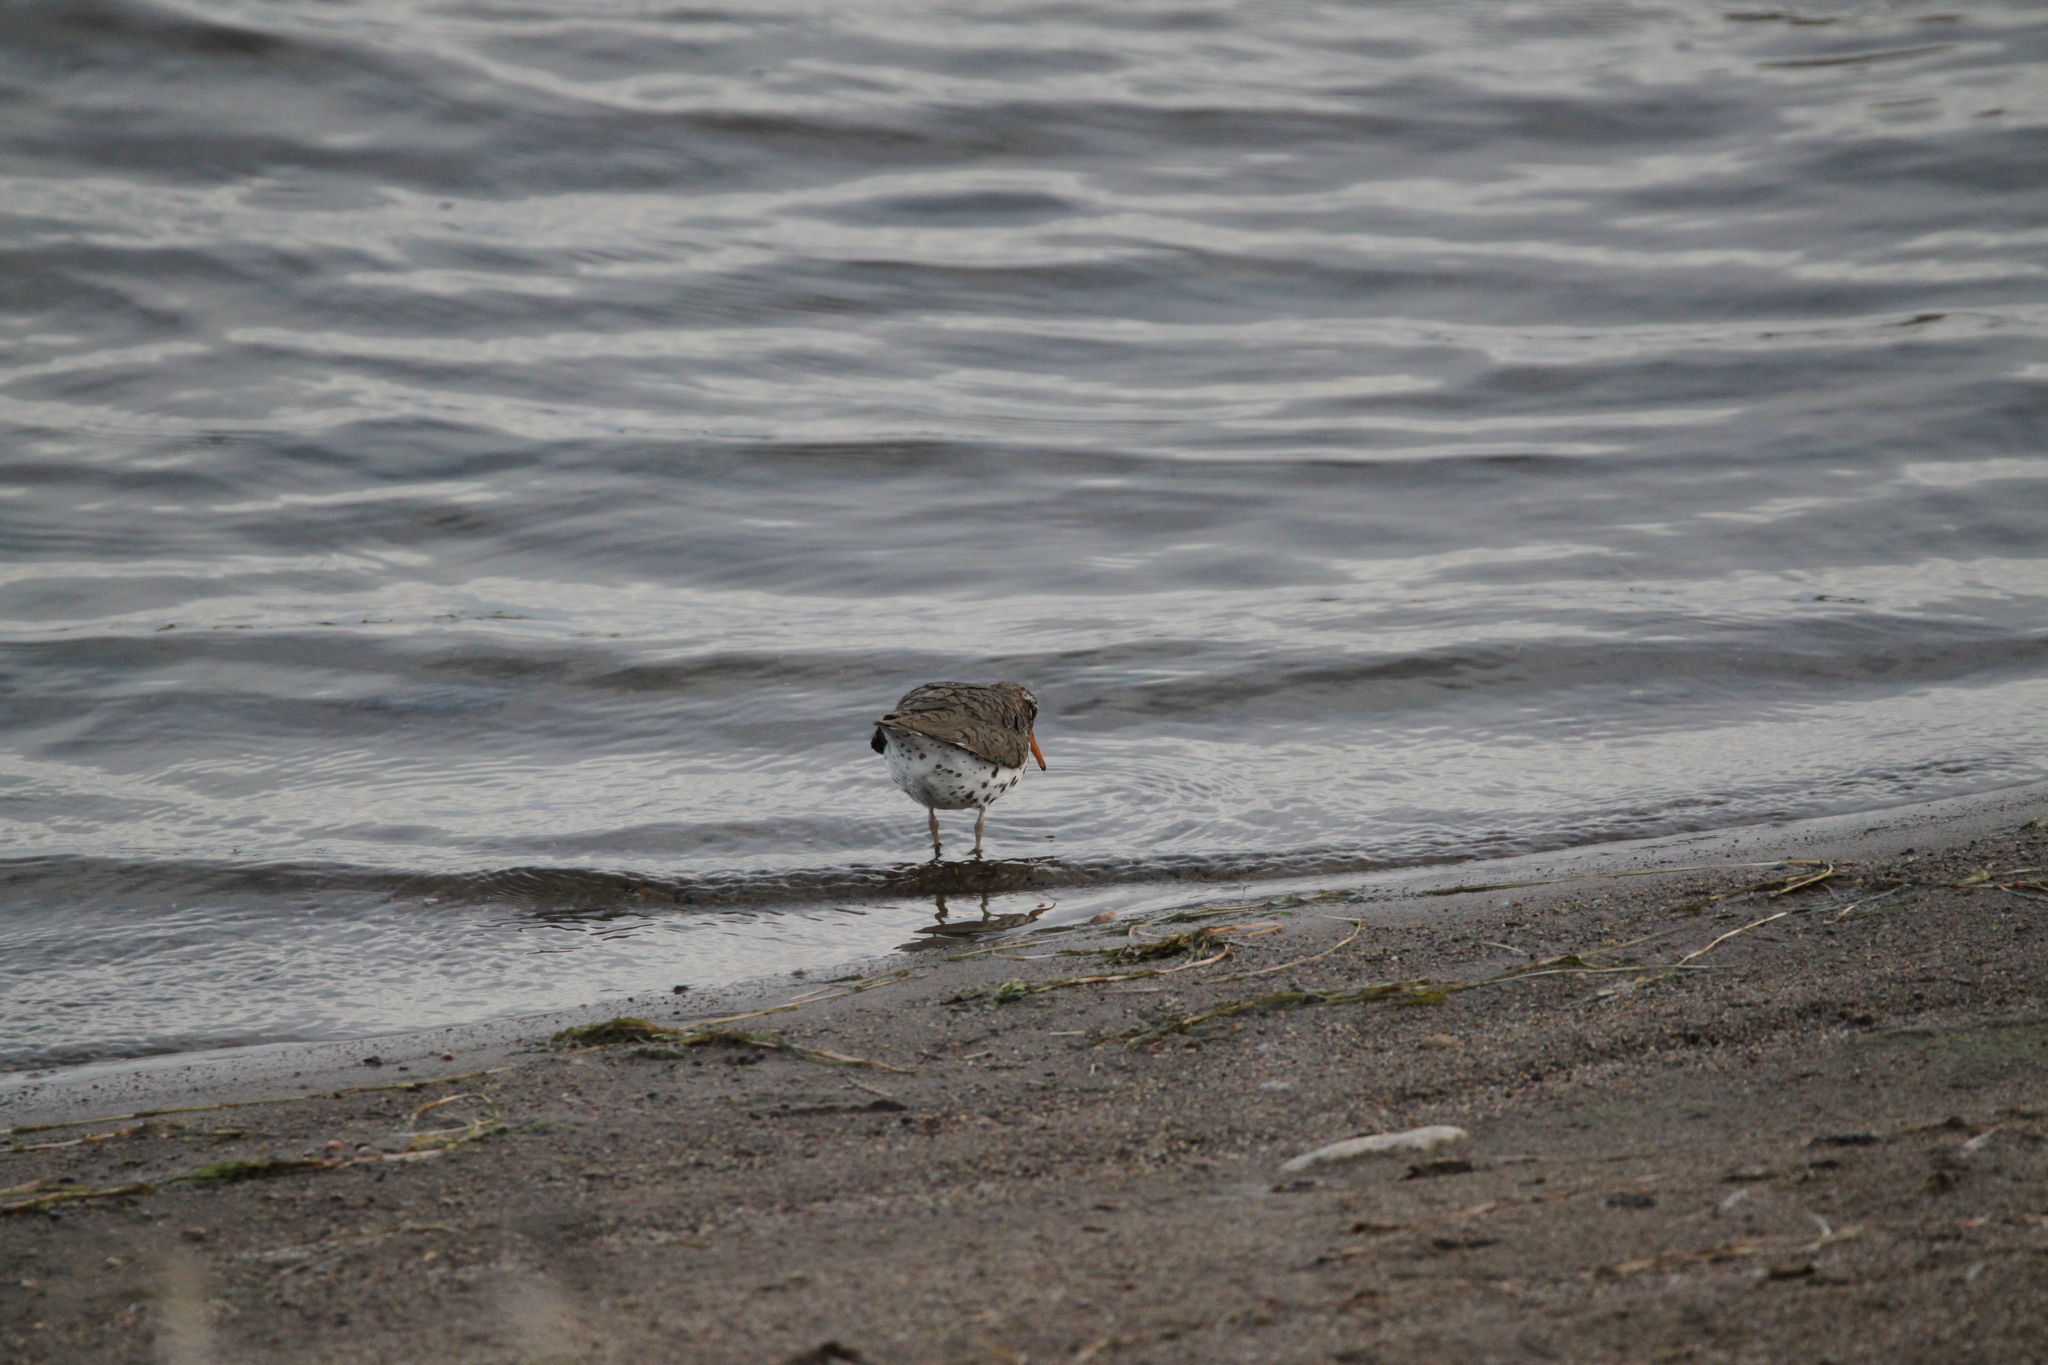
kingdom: Animalia
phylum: Chordata
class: Aves
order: Charadriiformes
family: Scolopacidae
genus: Actitis
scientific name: Actitis macularius
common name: Spotted sandpiper
